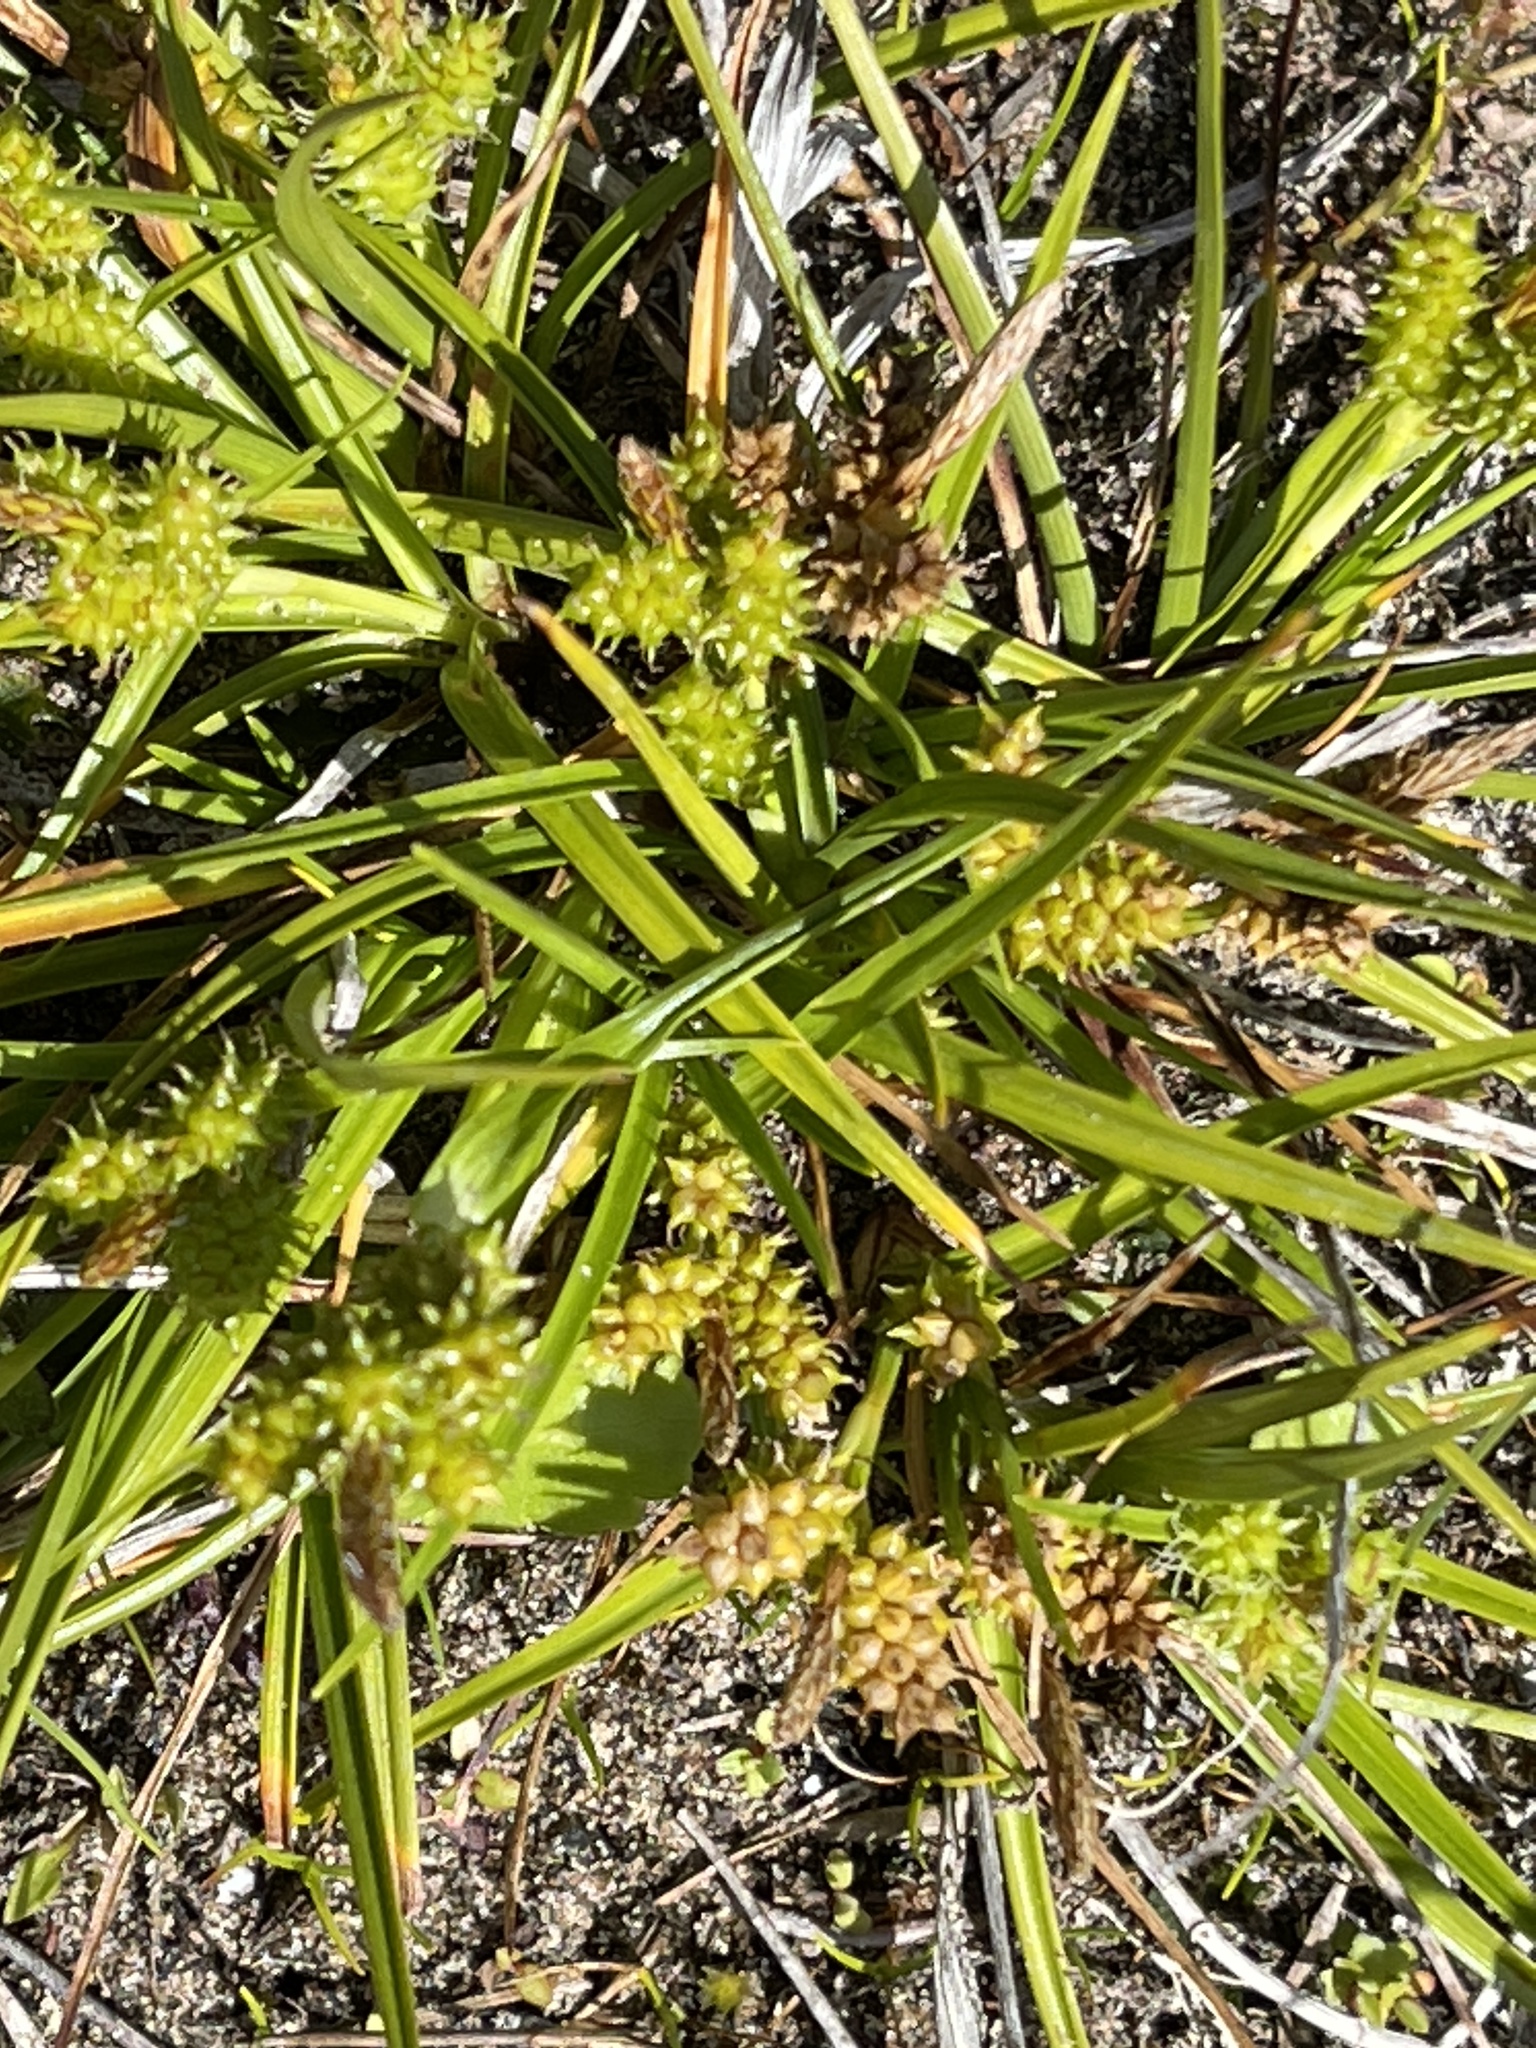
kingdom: Plantae
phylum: Tracheophyta
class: Liliopsida
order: Poales
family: Cyperaceae
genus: Carex
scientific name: Carex
